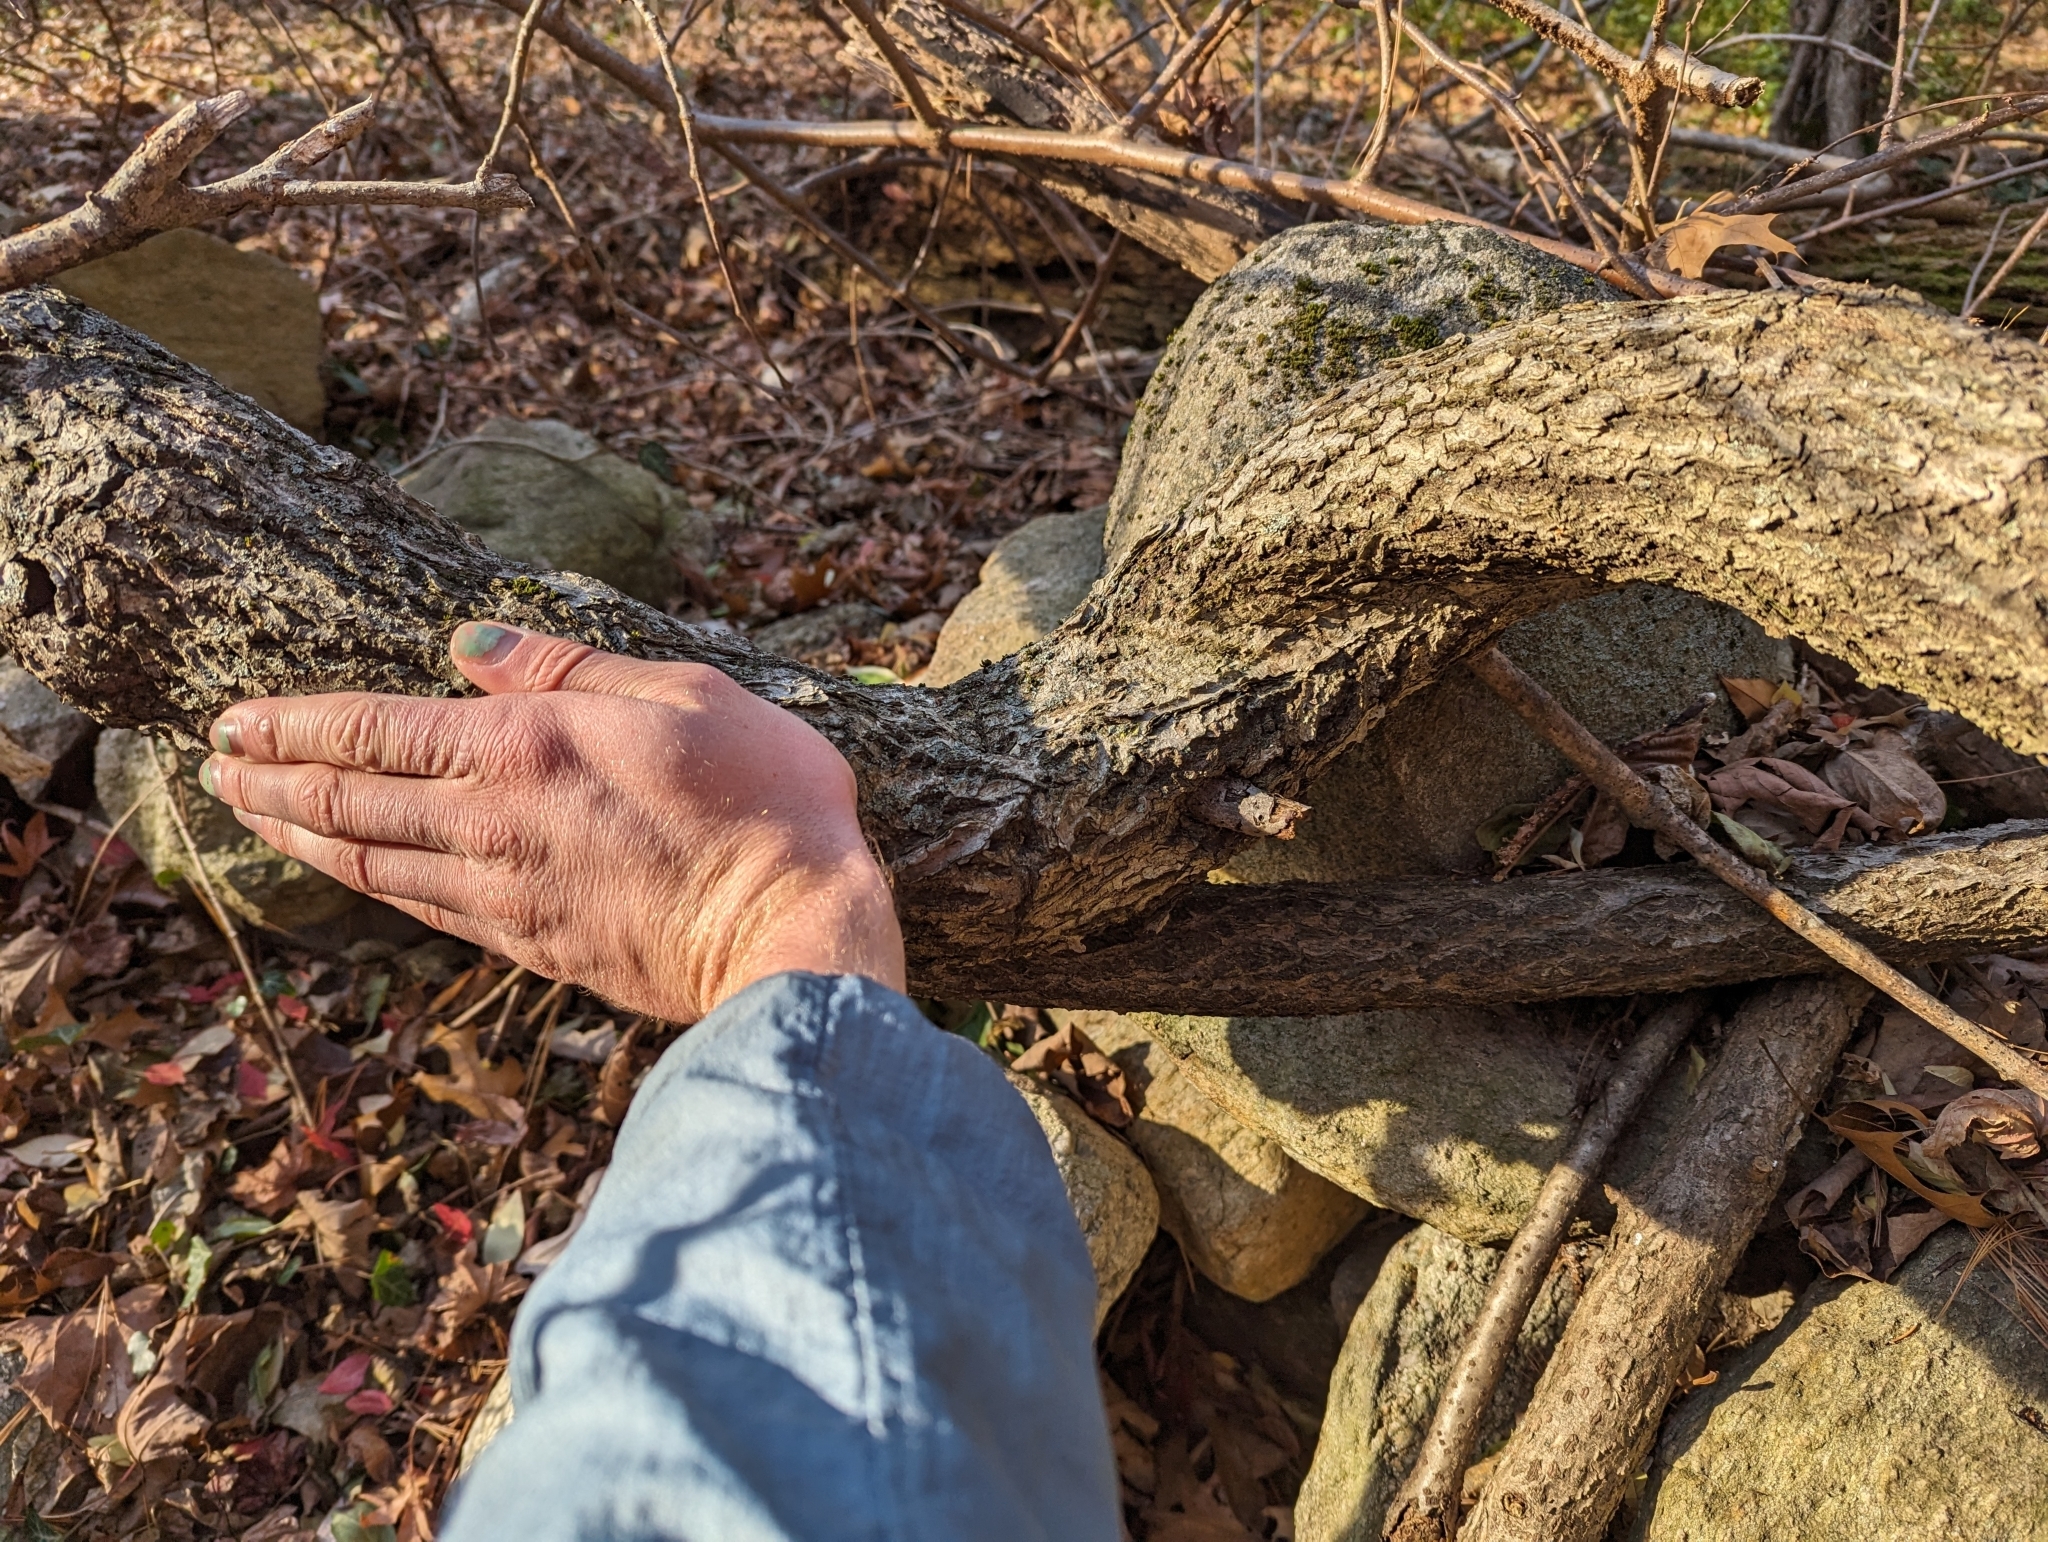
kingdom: Plantae
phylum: Tracheophyta
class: Magnoliopsida
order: Celastrales
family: Celastraceae
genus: Celastrus
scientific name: Celastrus orbiculatus
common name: Oriental bittersweet
